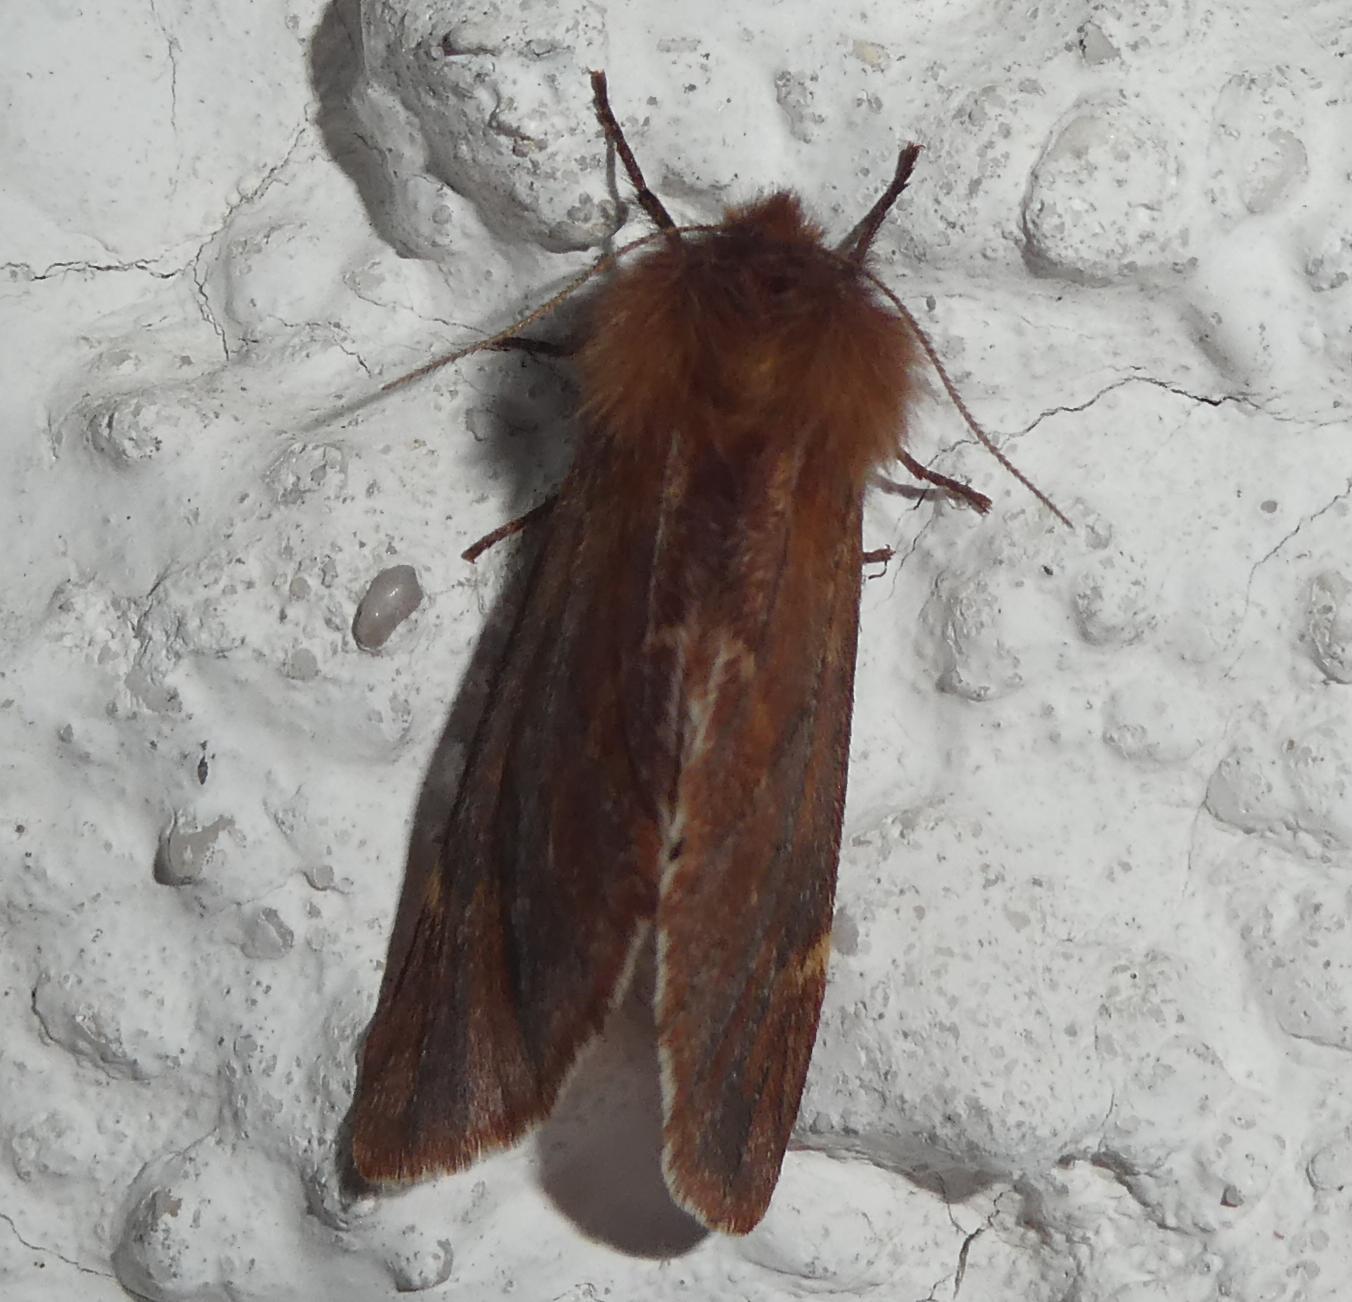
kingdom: Animalia
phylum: Arthropoda
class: Insecta
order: Lepidoptera
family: Notodontidae
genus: Ptilophora
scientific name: Ptilophora plumigera
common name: Plumed prominent
